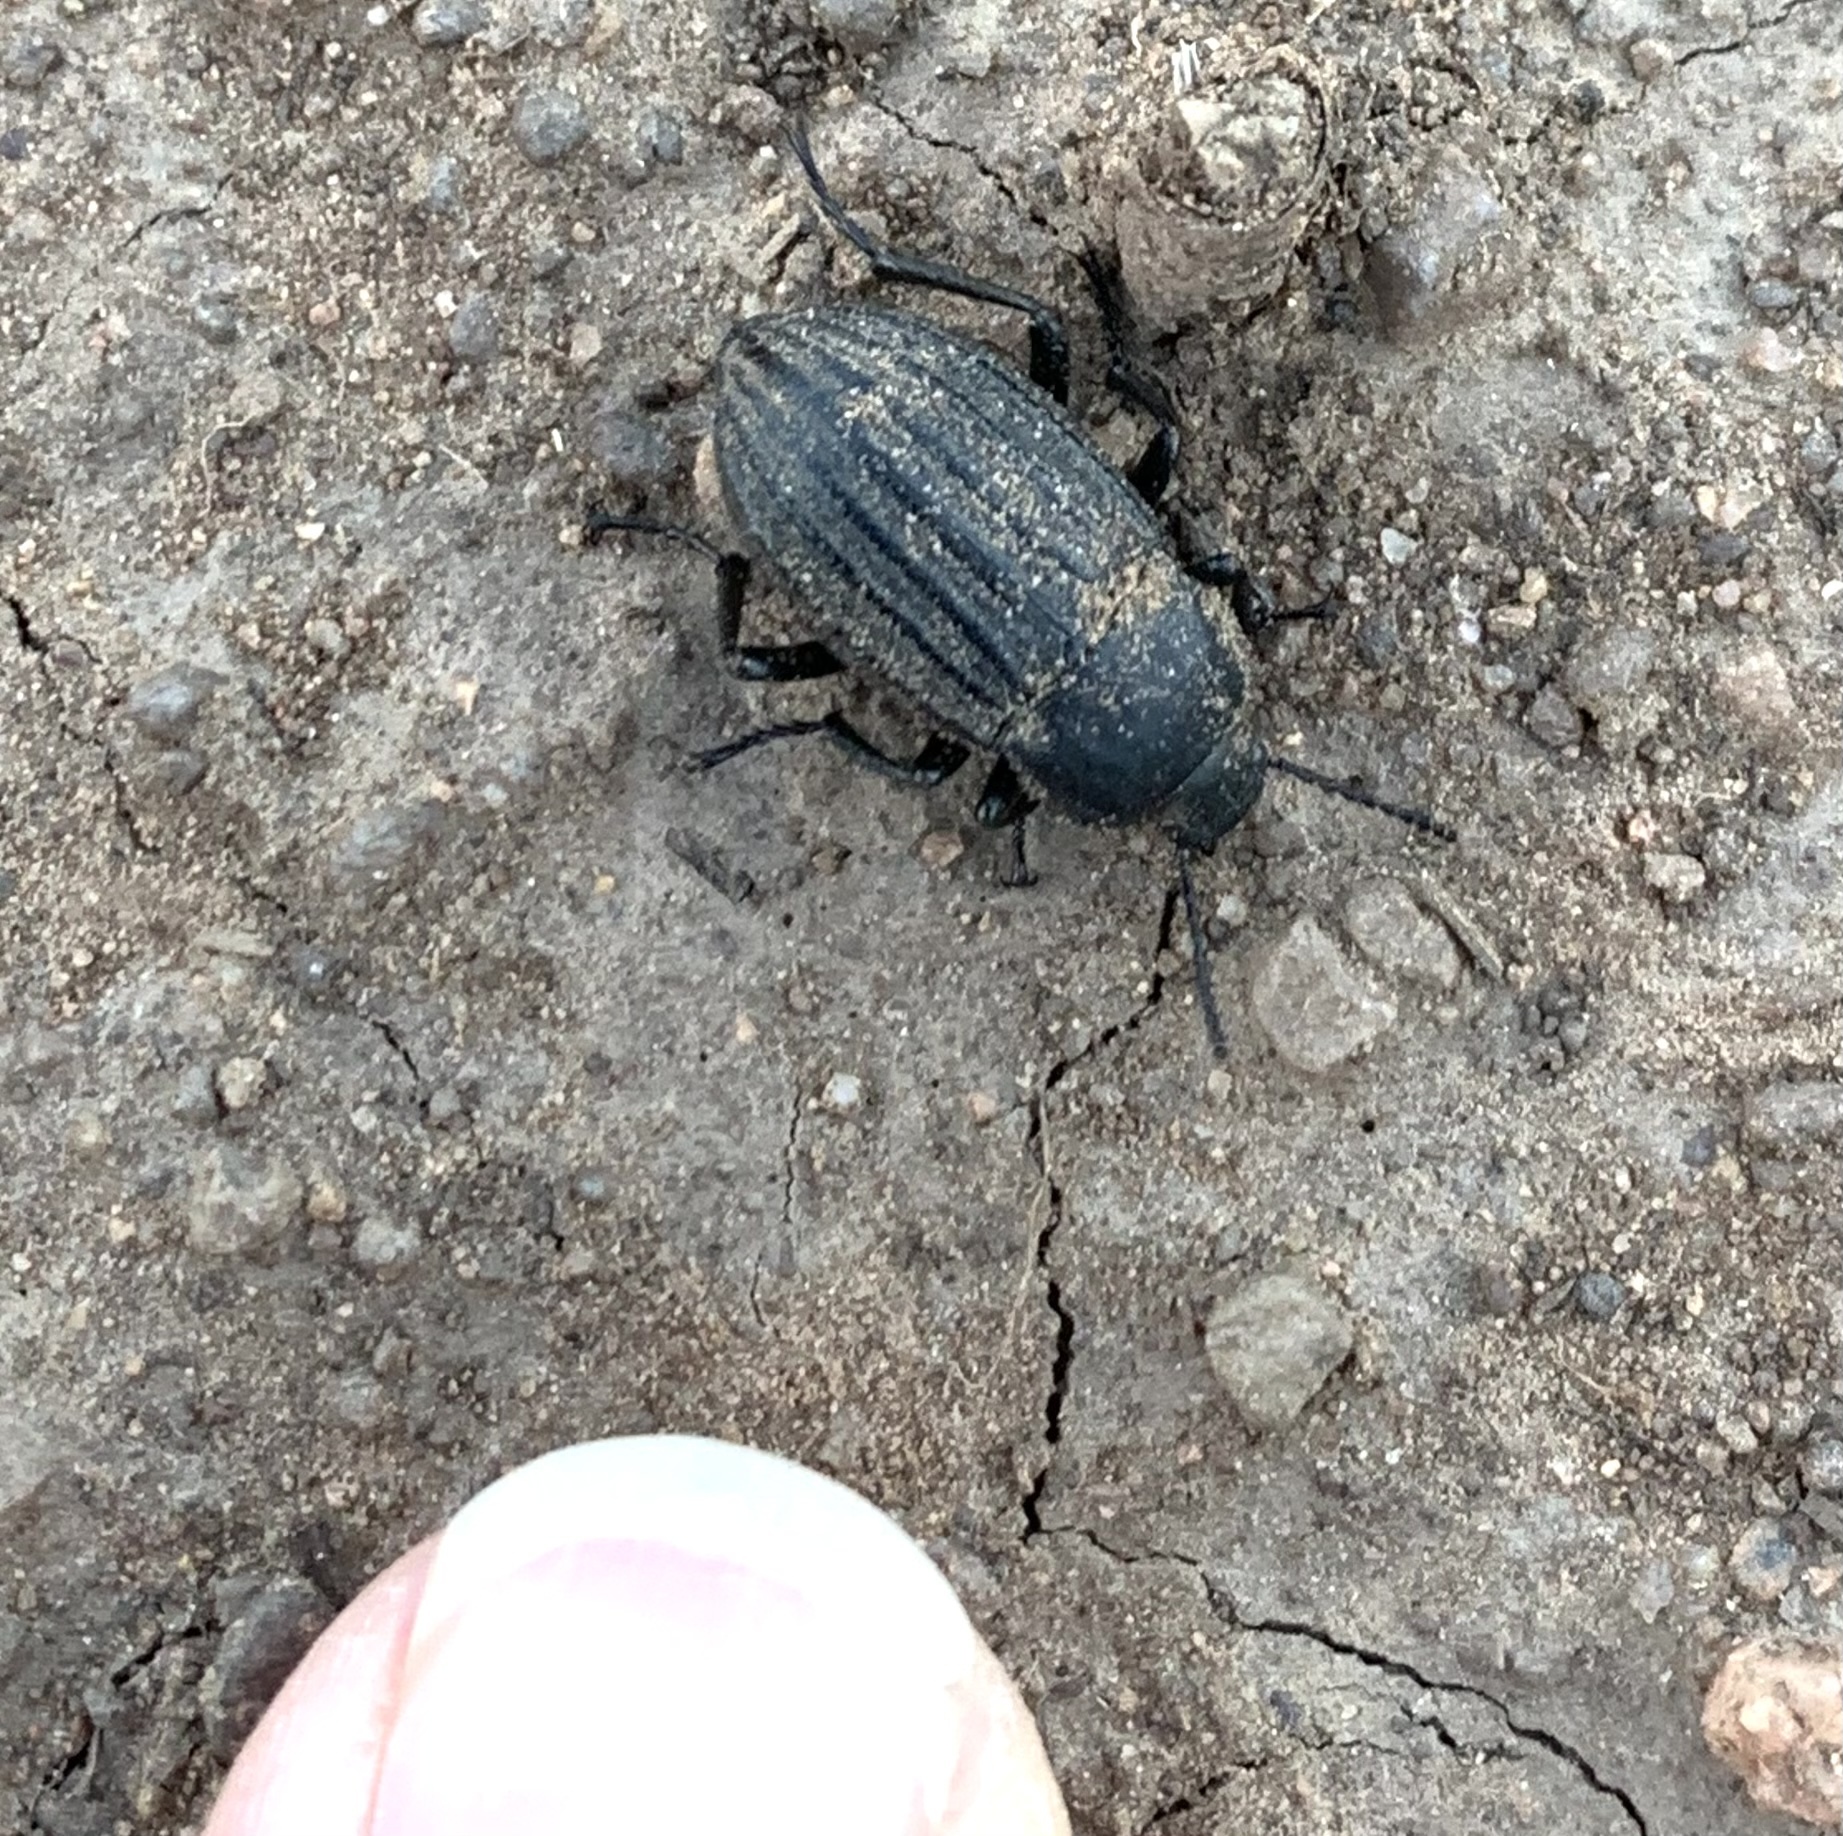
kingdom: Animalia
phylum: Arthropoda
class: Insecta
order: Coleoptera
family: Tenebrionidae
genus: Eleodes
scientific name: Eleodes tricostata
